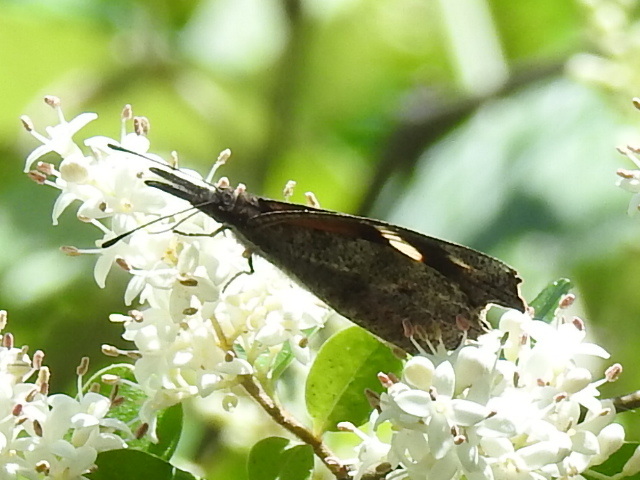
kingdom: Animalia
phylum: Arthropoda
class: Insecta
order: Lepidoptera
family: Nymphalidae
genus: Libytheana
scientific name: Libytheana carinenta
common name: American snout
